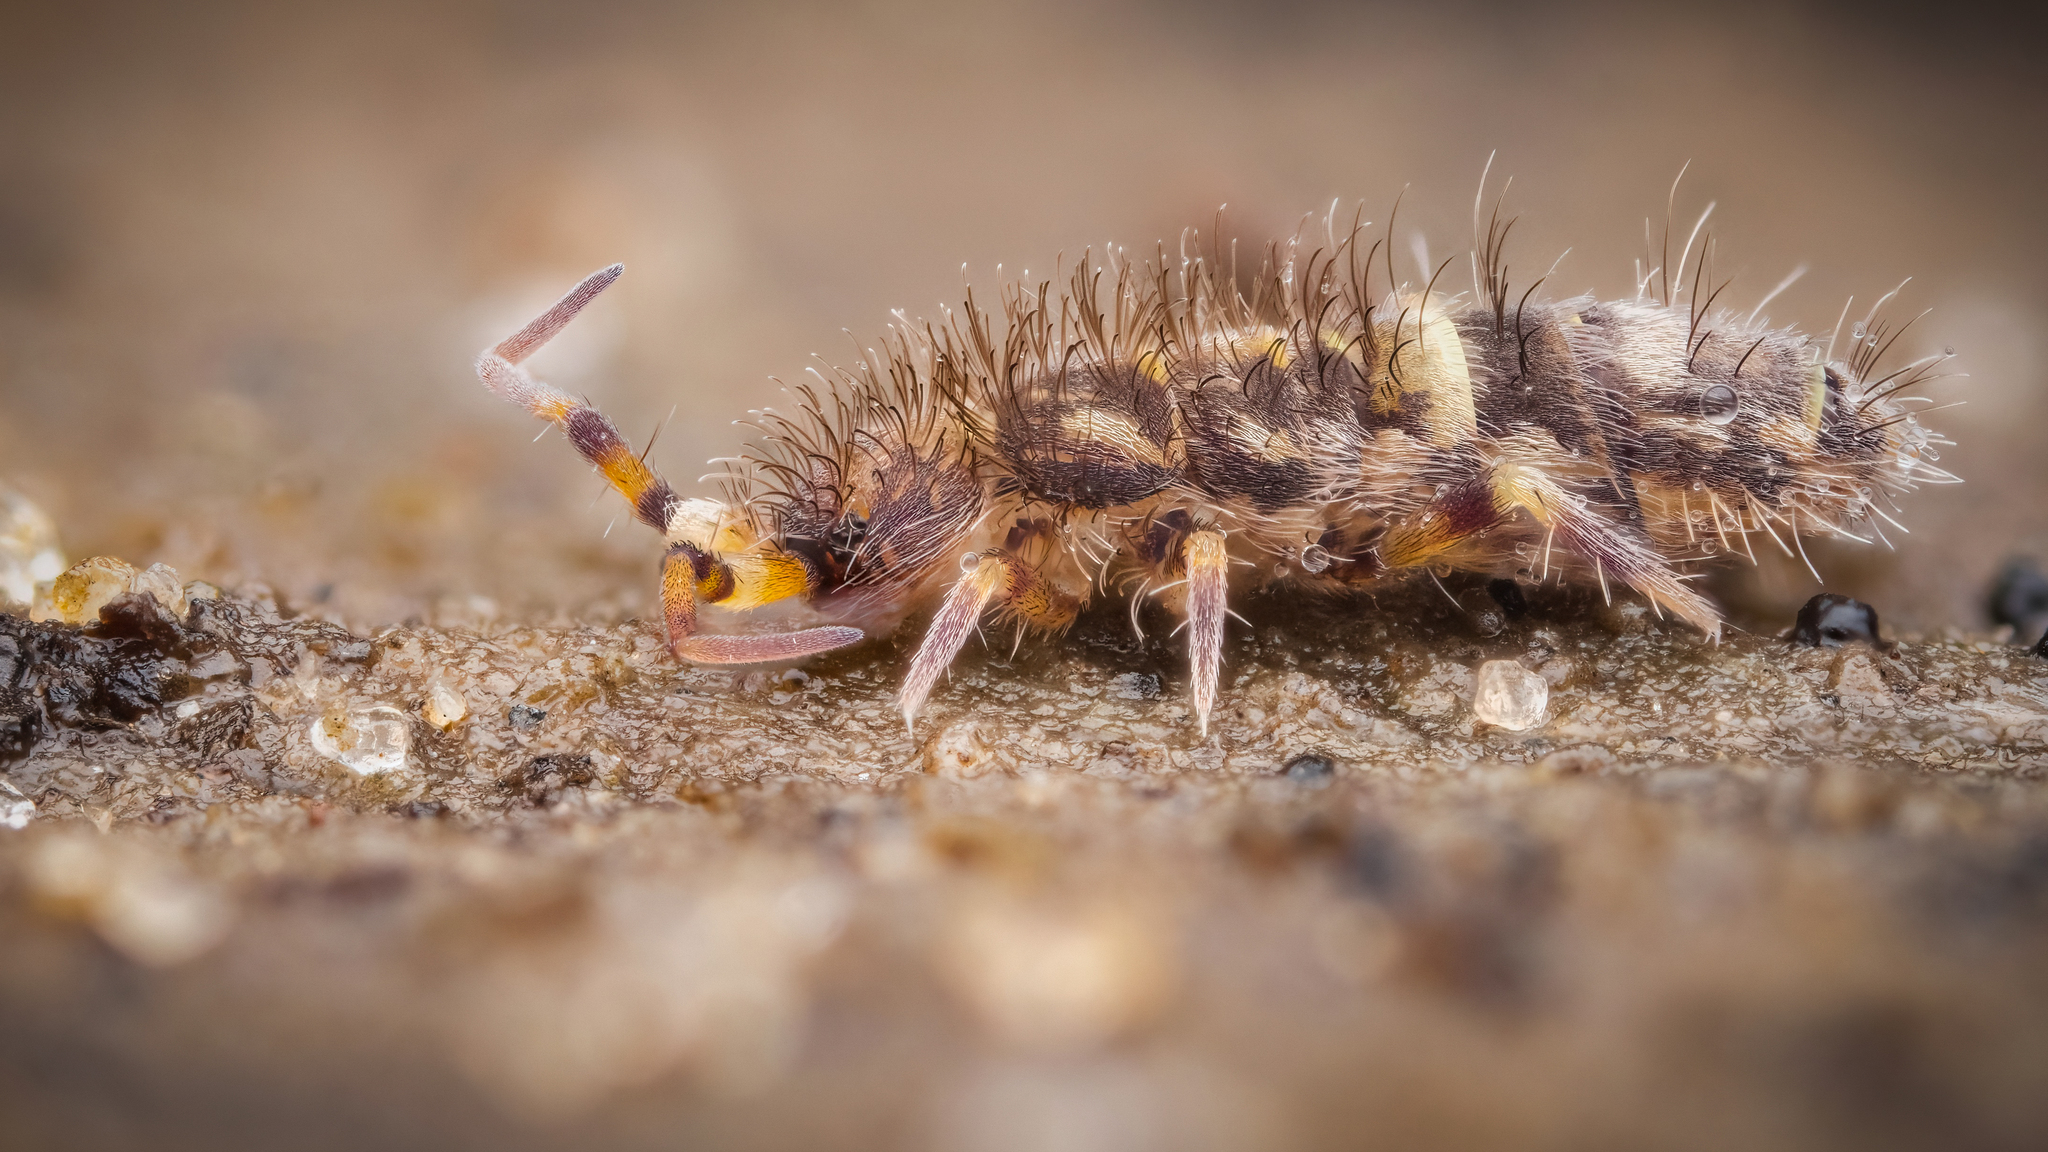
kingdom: Animalia
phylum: Arthropoda
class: Collembola
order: Entomobryomorpha
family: Orchesellidae
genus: Orchesella
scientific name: Orchesella cincta
